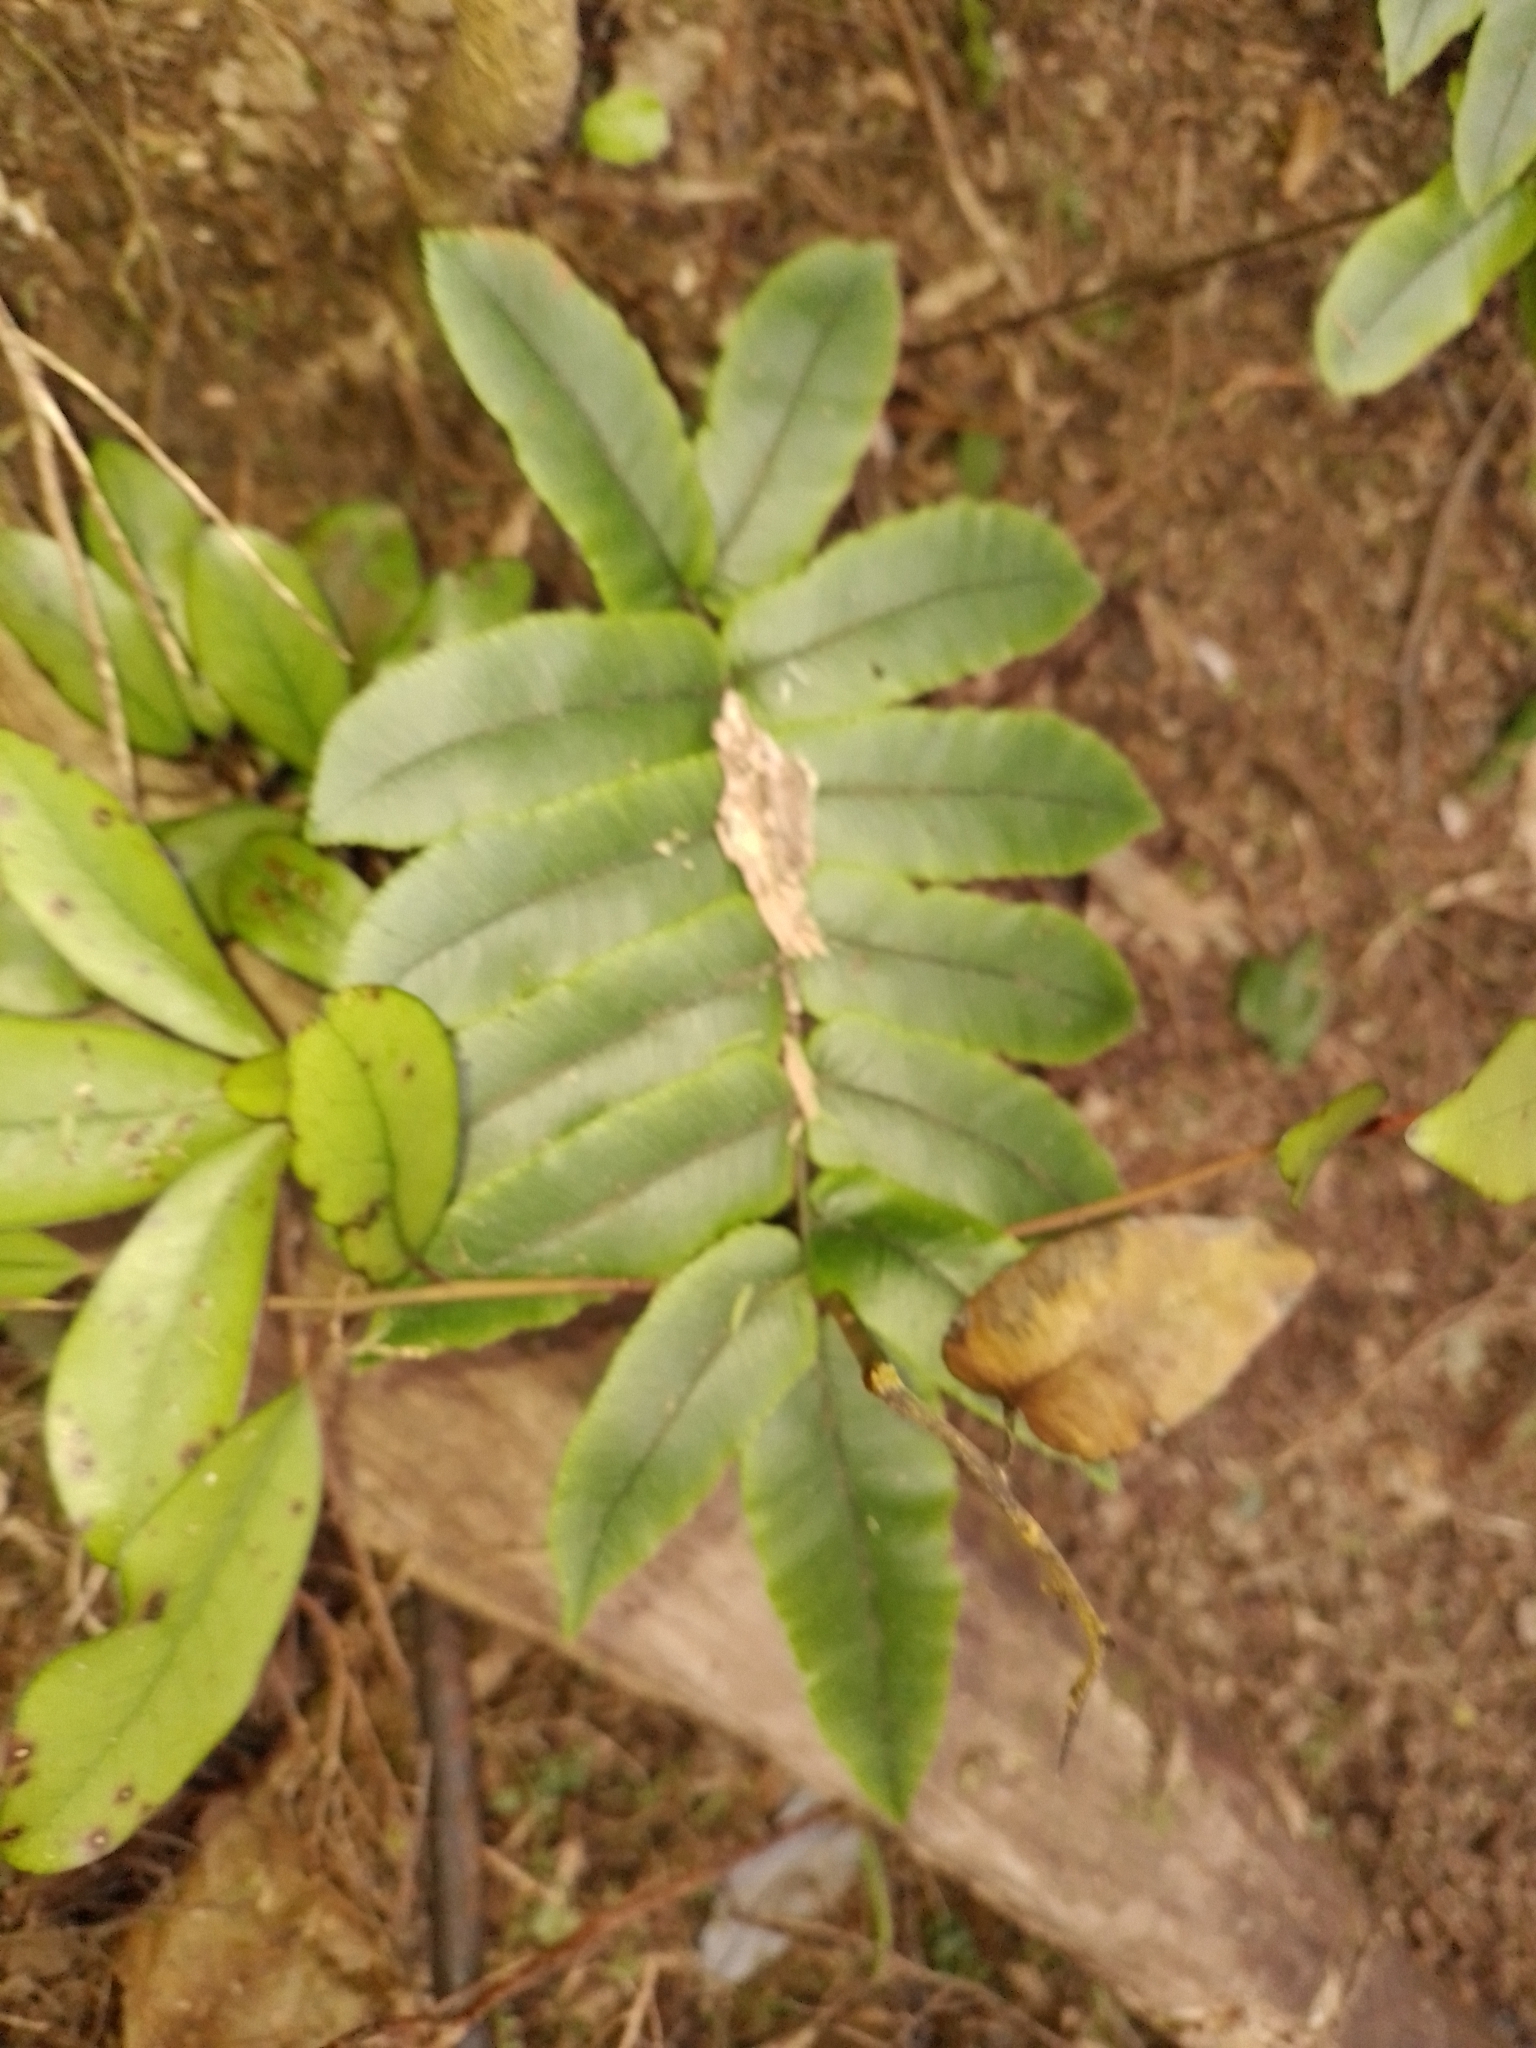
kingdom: Plantae
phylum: Tracheophyta
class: Polypodiopsida
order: Polypodiales
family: Blechnaceae
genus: Parablechnum
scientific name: Parablechnum procerum
